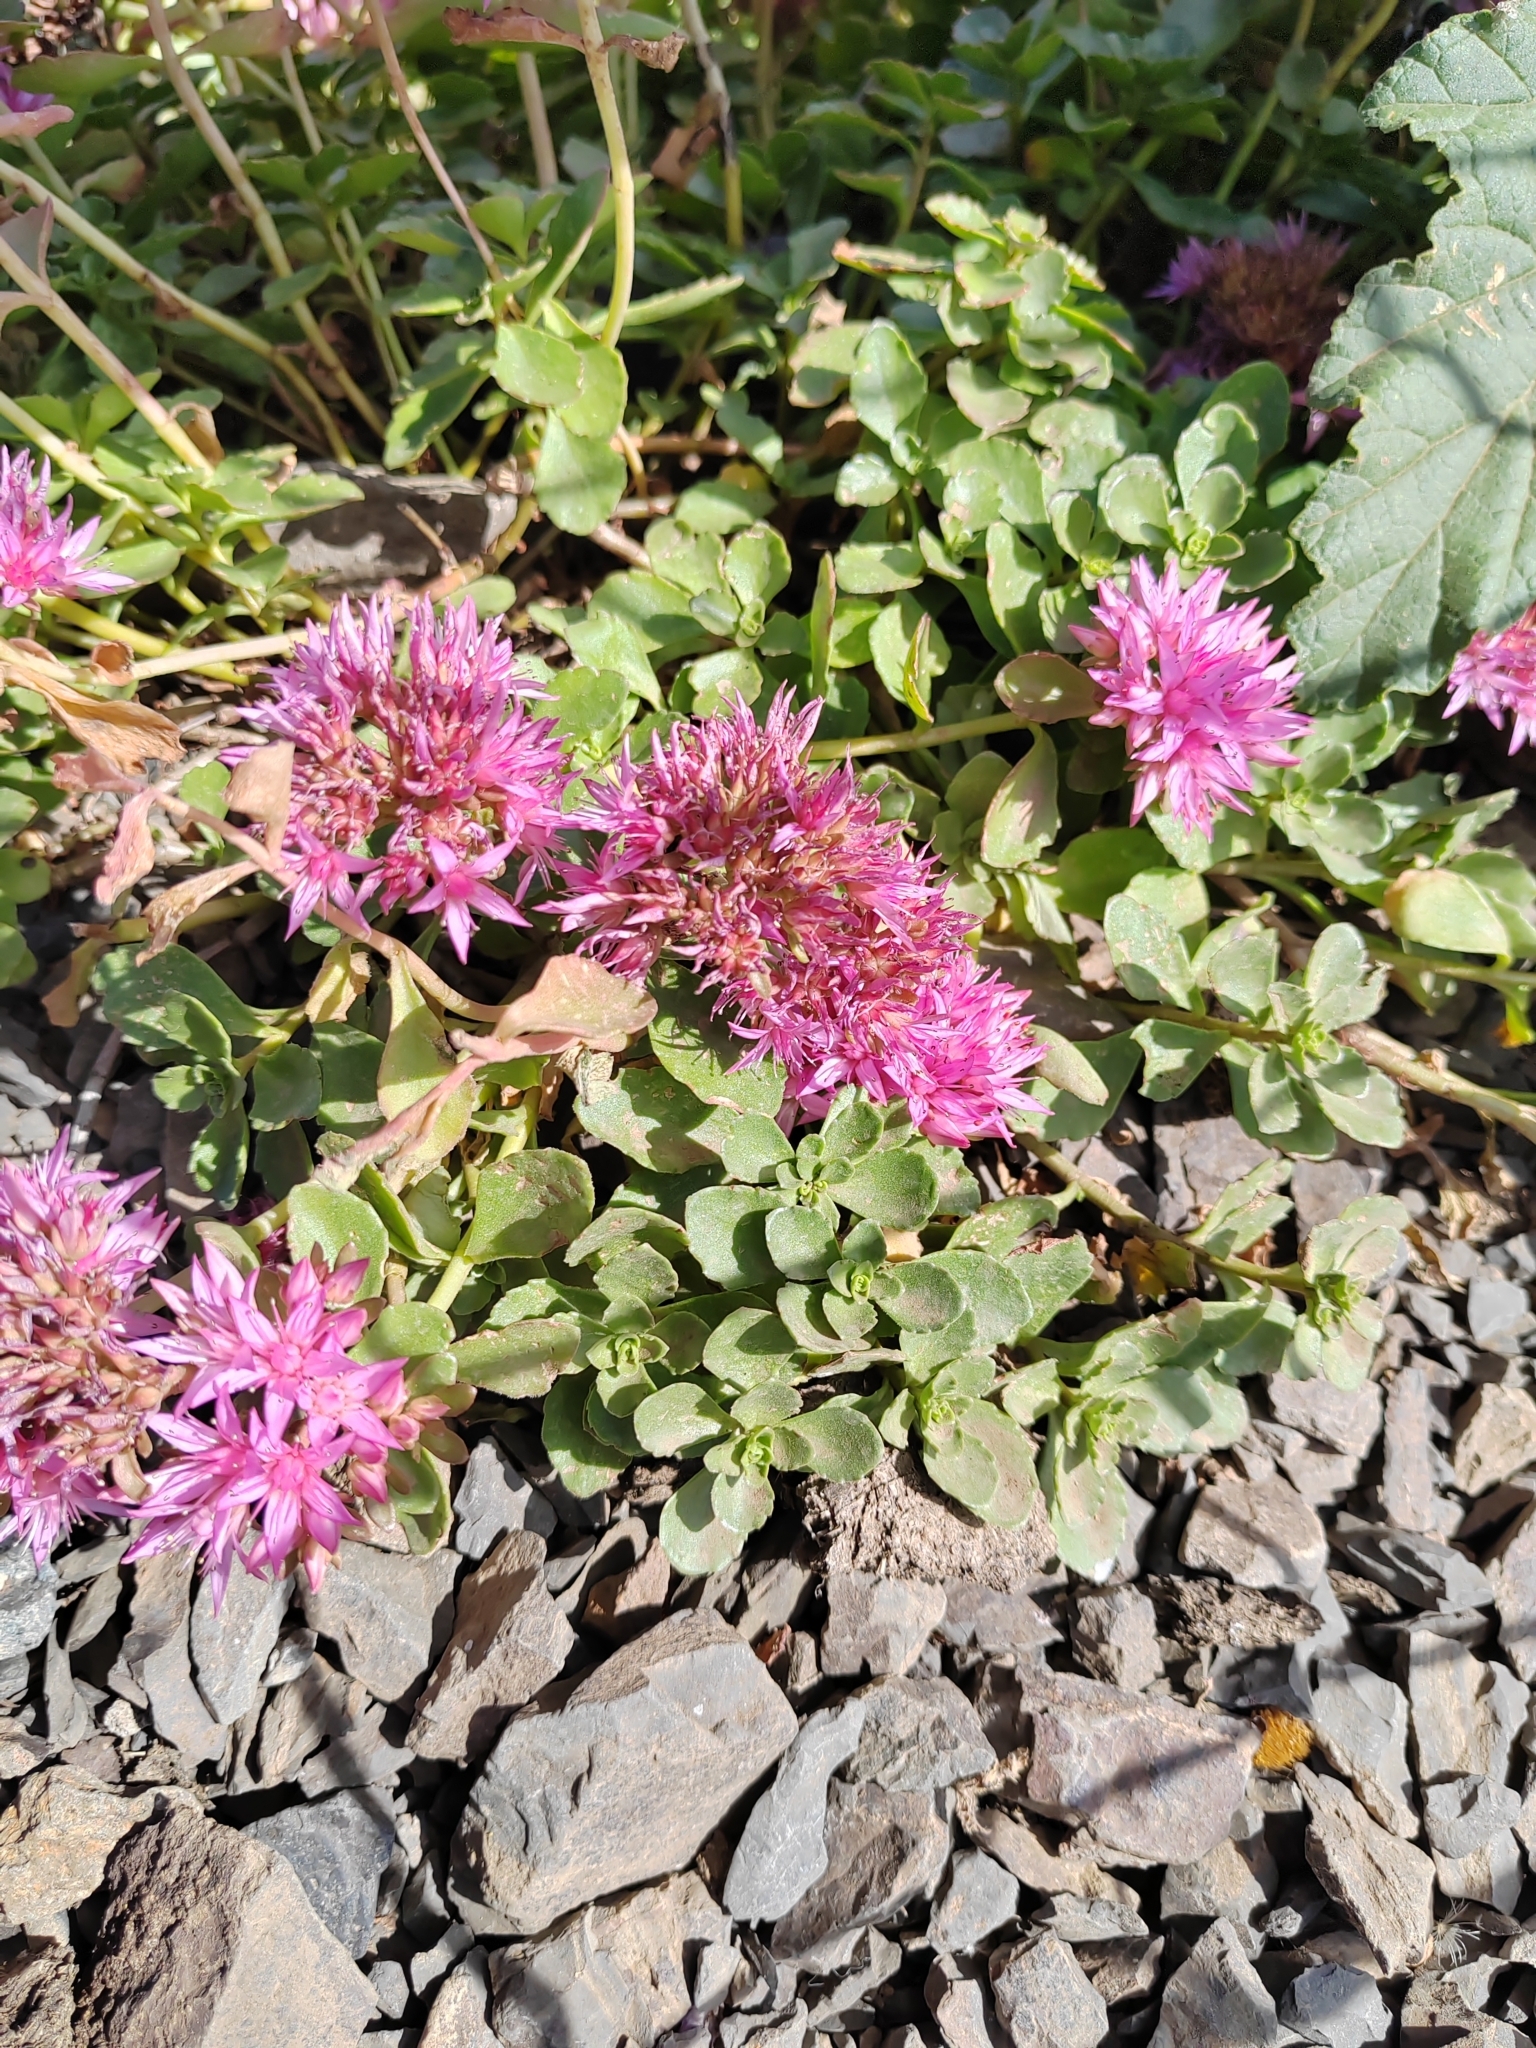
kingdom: Plantae
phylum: Tracheophyta
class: Magnoliopsida
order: Saxifragales
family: Crassulaceae
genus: Phedimus
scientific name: Phedimus spurius
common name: Caucasian stonecrop
